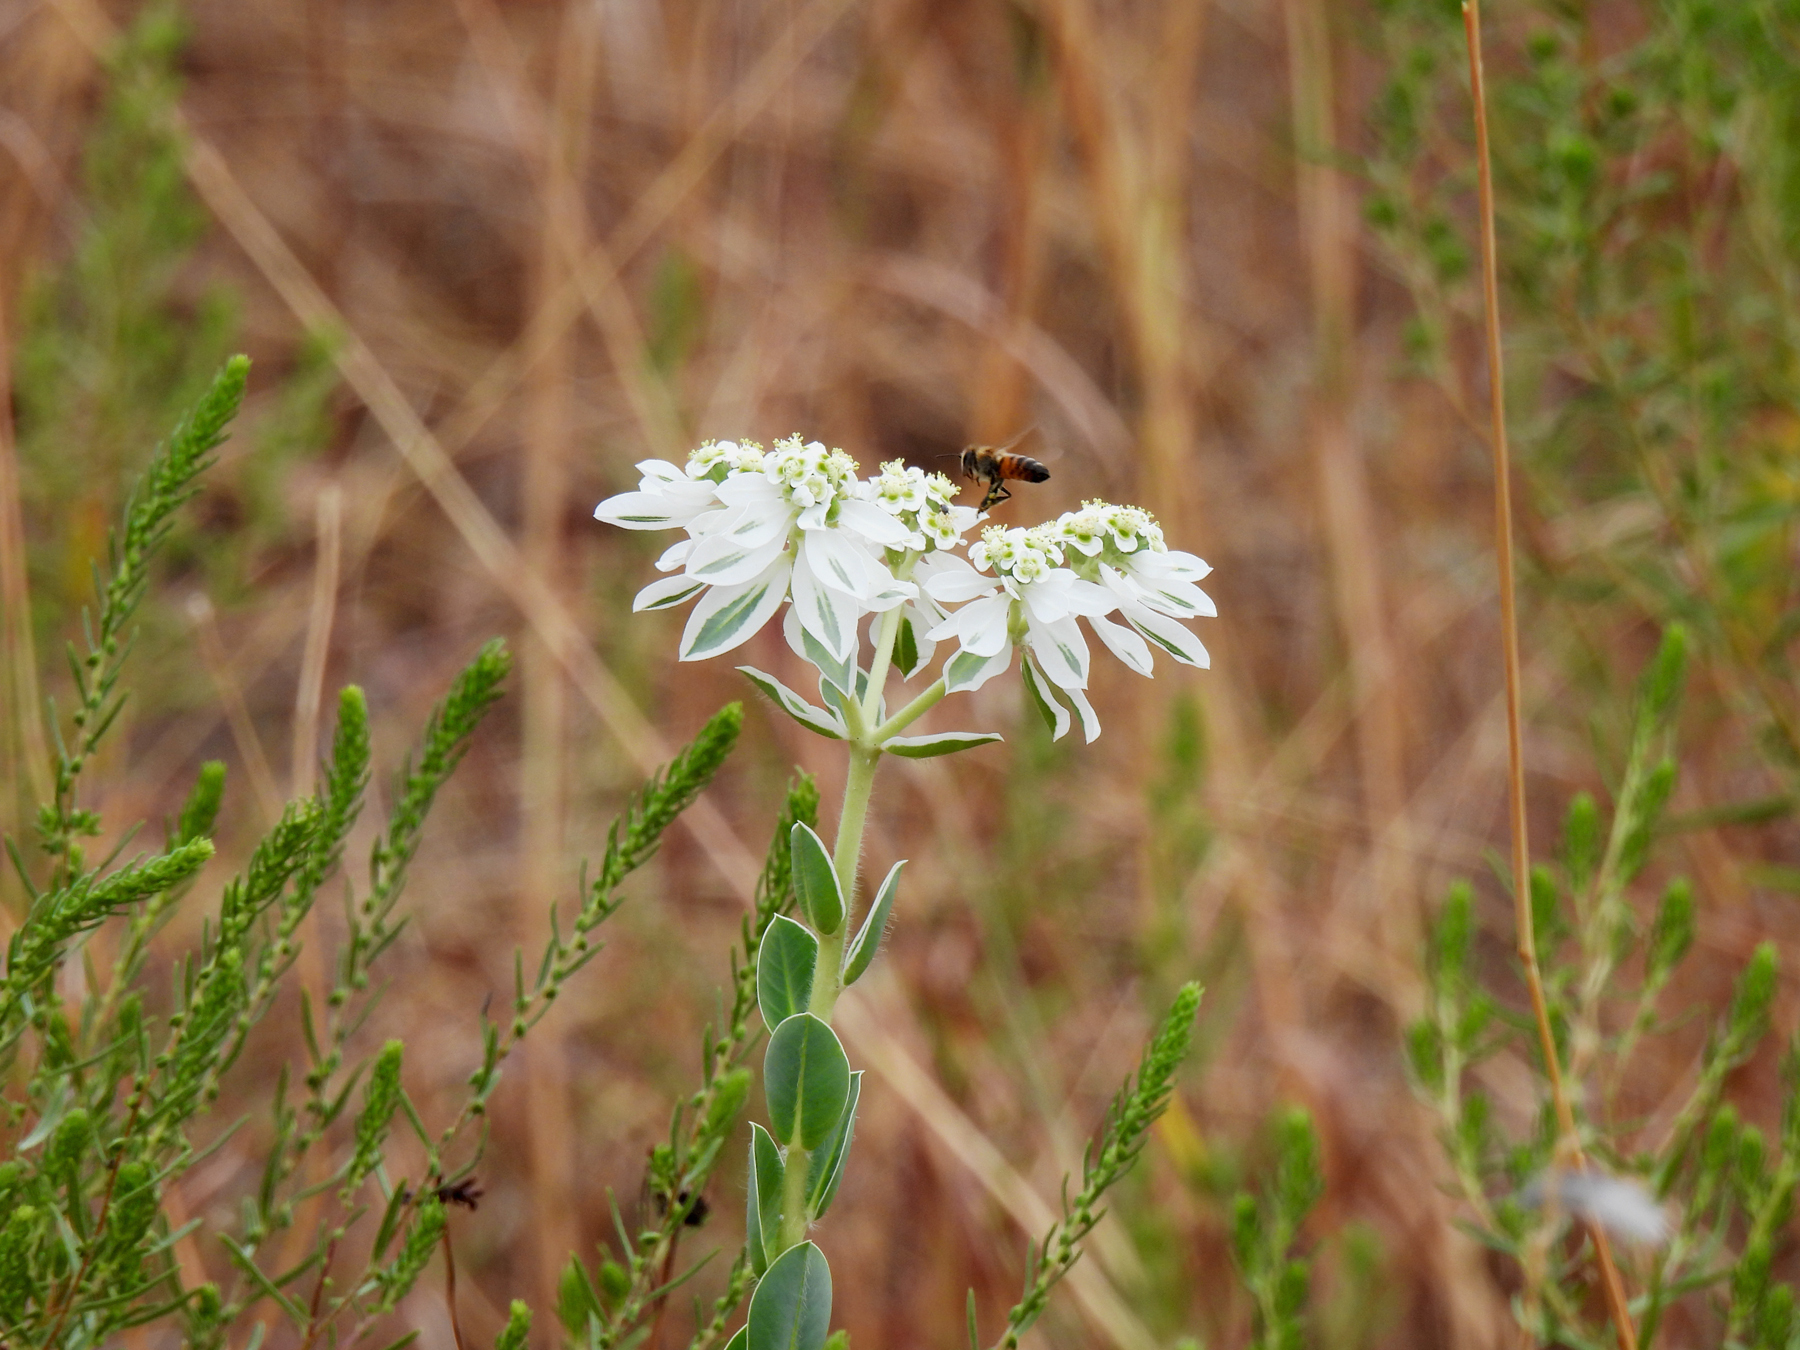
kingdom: Plantae
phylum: Tracheophyta
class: Magnoliopsida
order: Malpighiales
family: Euphorbiaceae
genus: Euphorbia
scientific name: Euphorbia marginata
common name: Ghostweed
